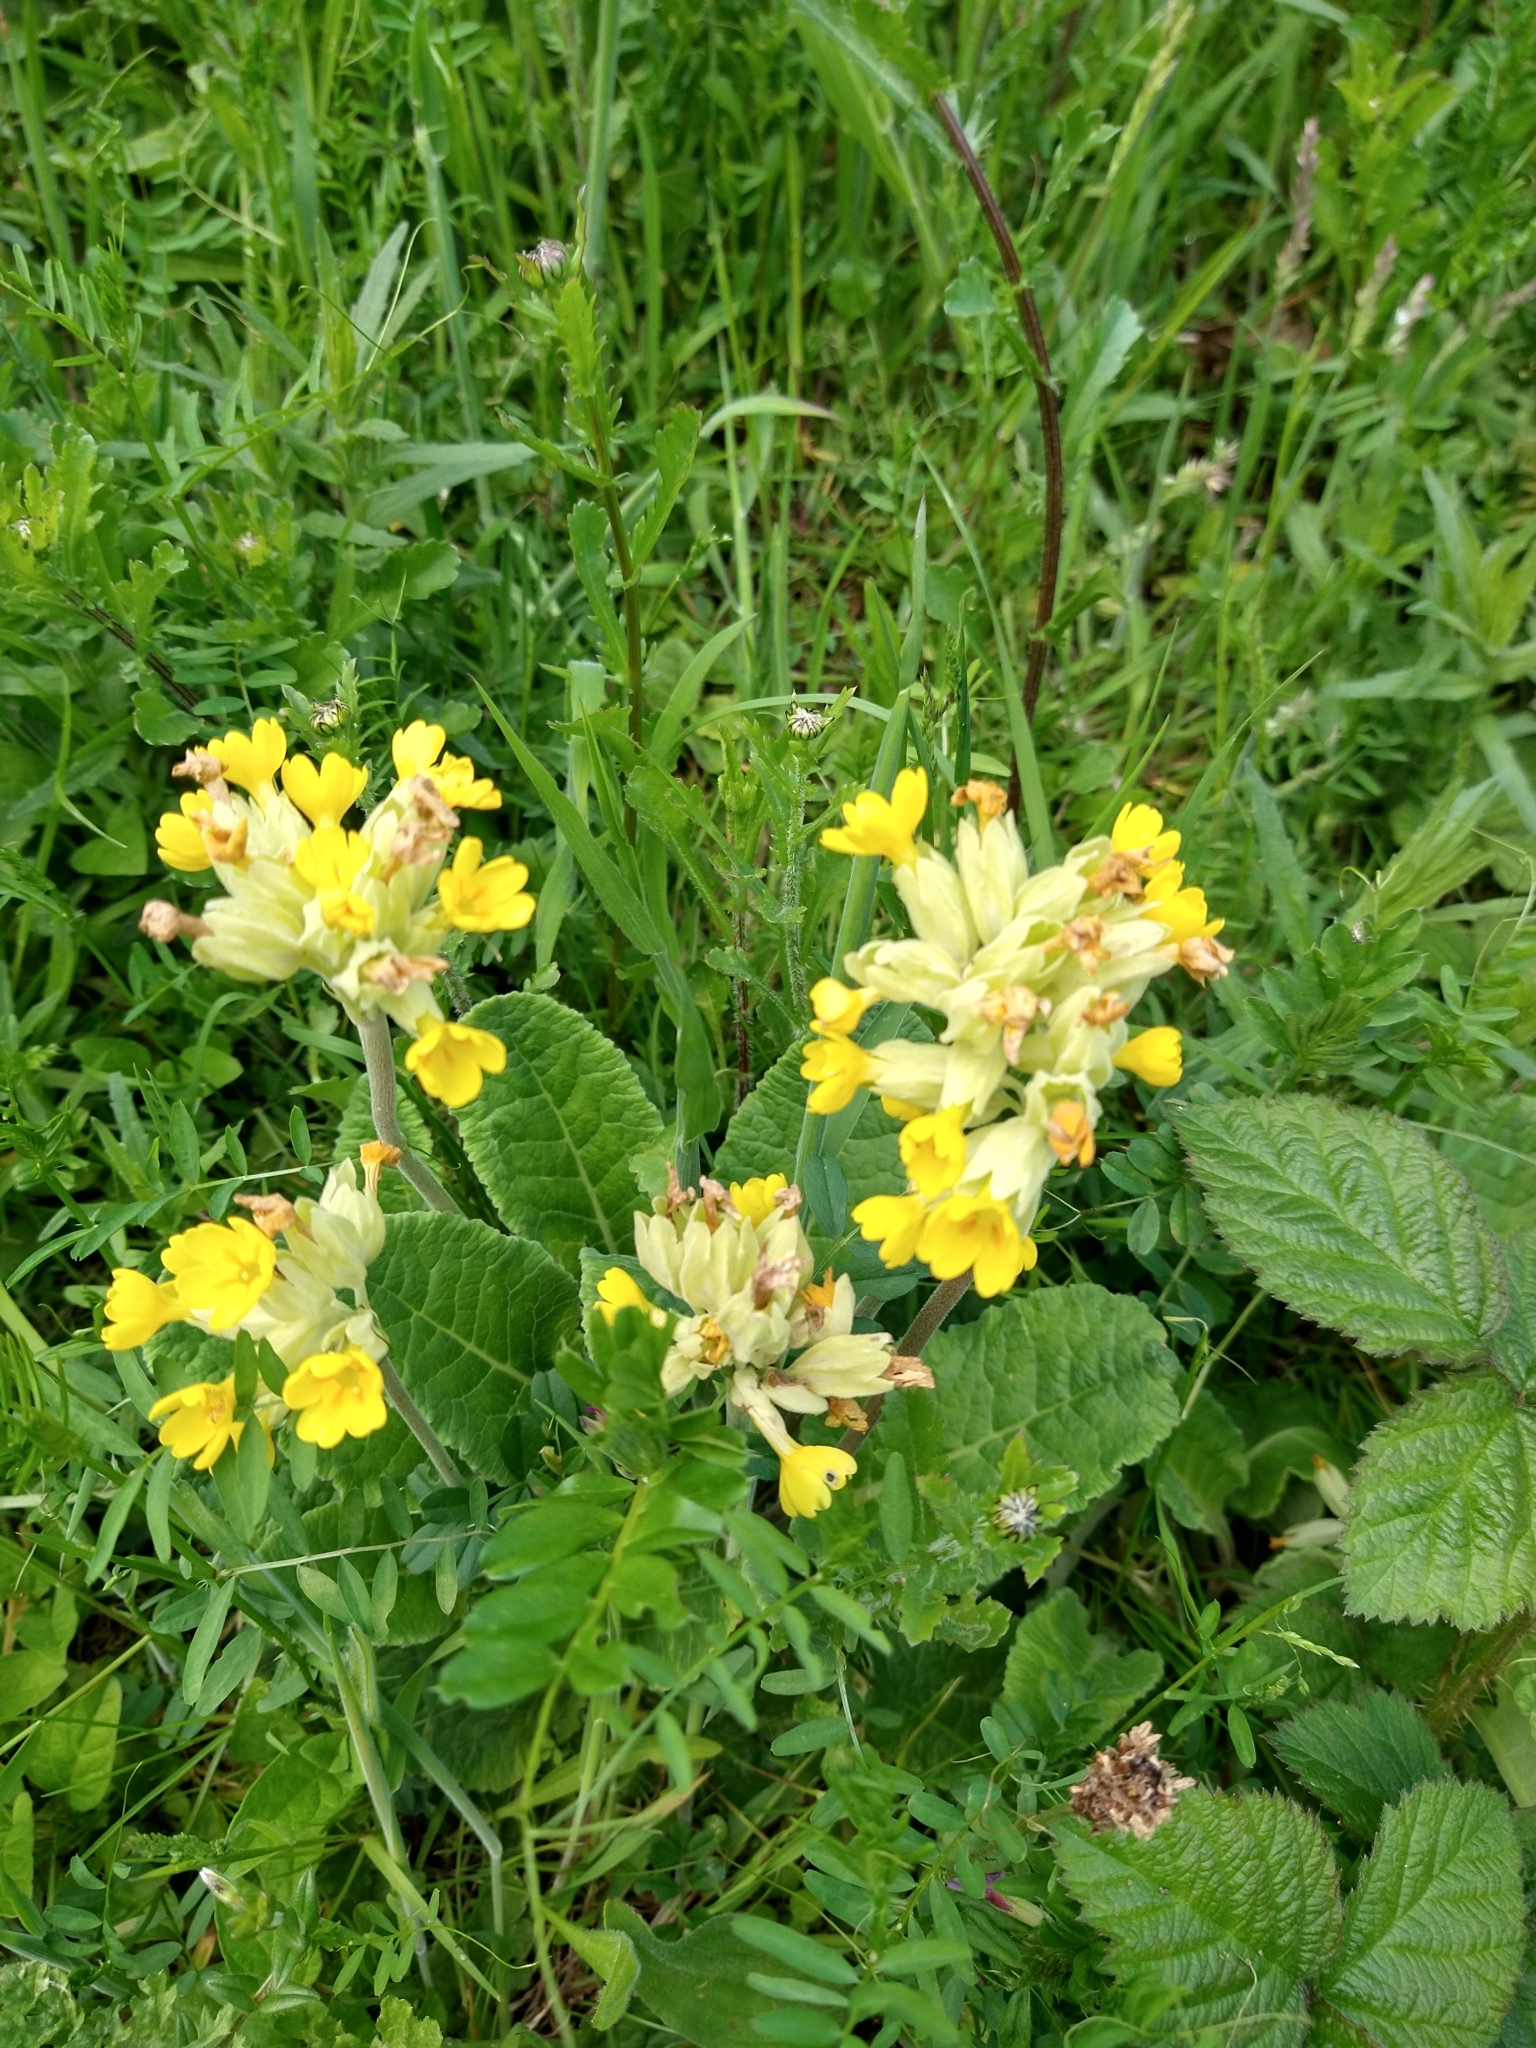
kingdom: Plantae
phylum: Tracheophyta
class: Magnoliopsida
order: Ericales
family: Primulaceae
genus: Primula
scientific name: Primula veris
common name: Cowslip
